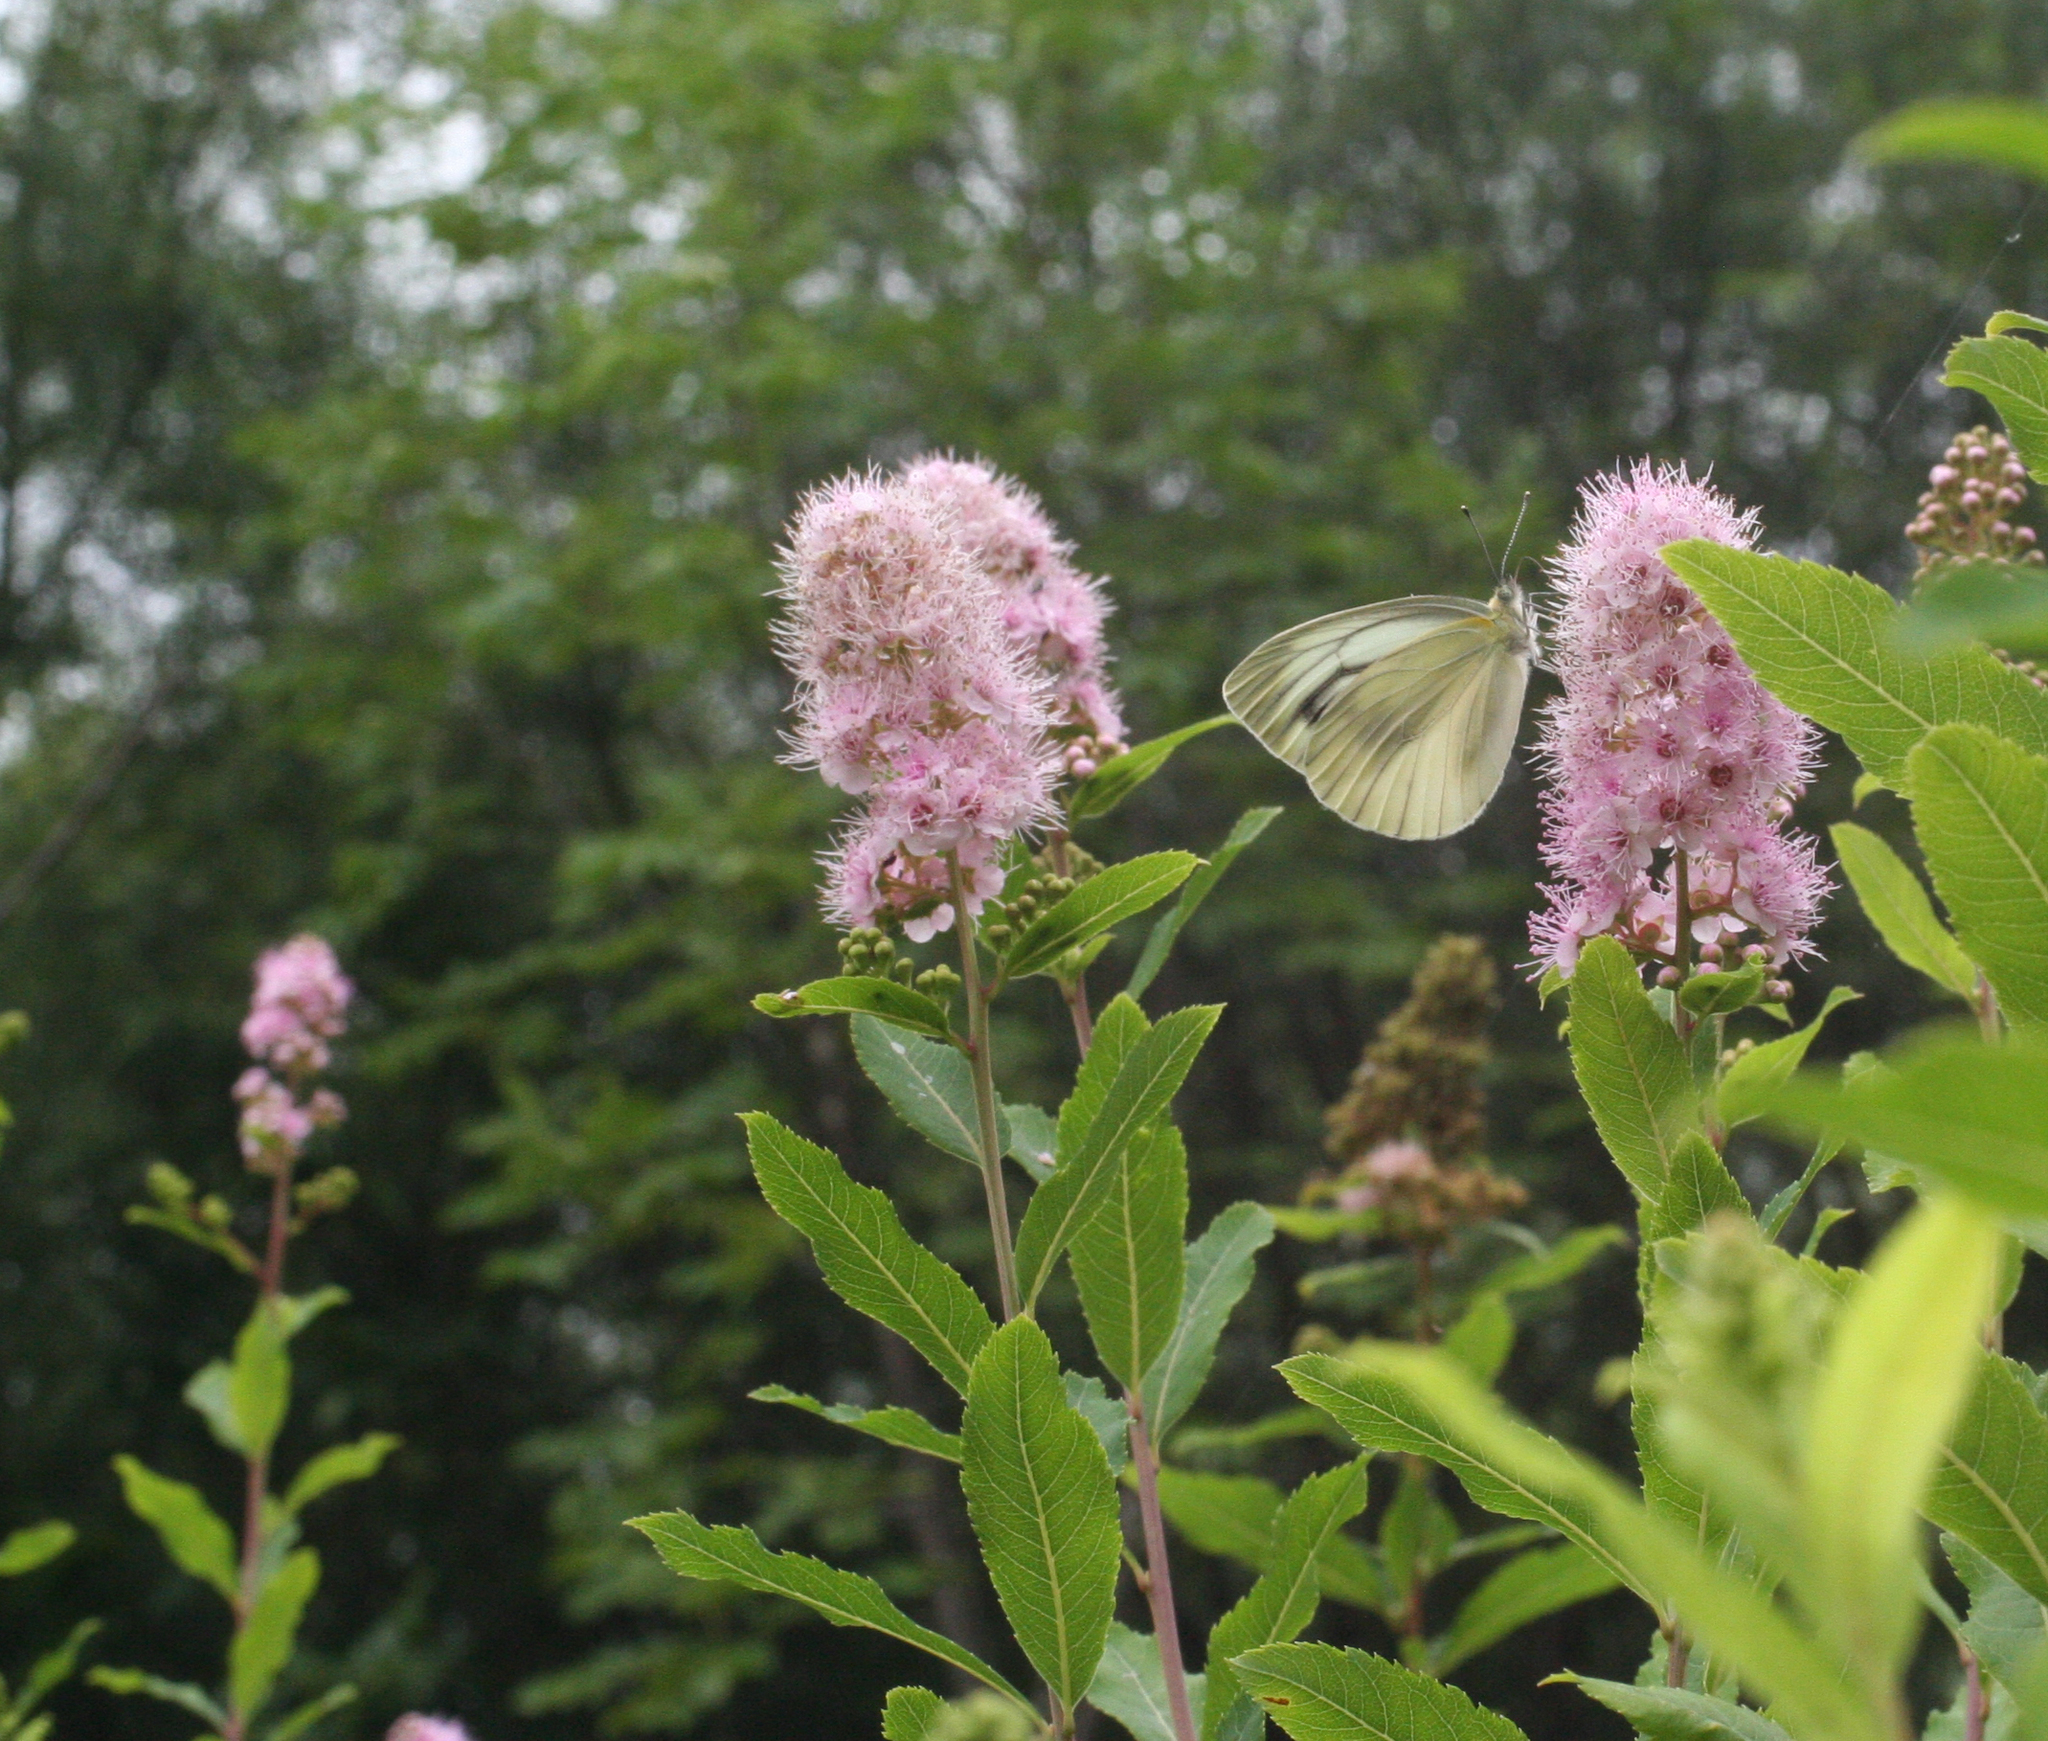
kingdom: Plantae
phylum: Tracheophyta
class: Magnoliopsida
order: Rosales
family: Rosaceae
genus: Spiraea
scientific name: Spiraea salicifolia
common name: Bridewort
